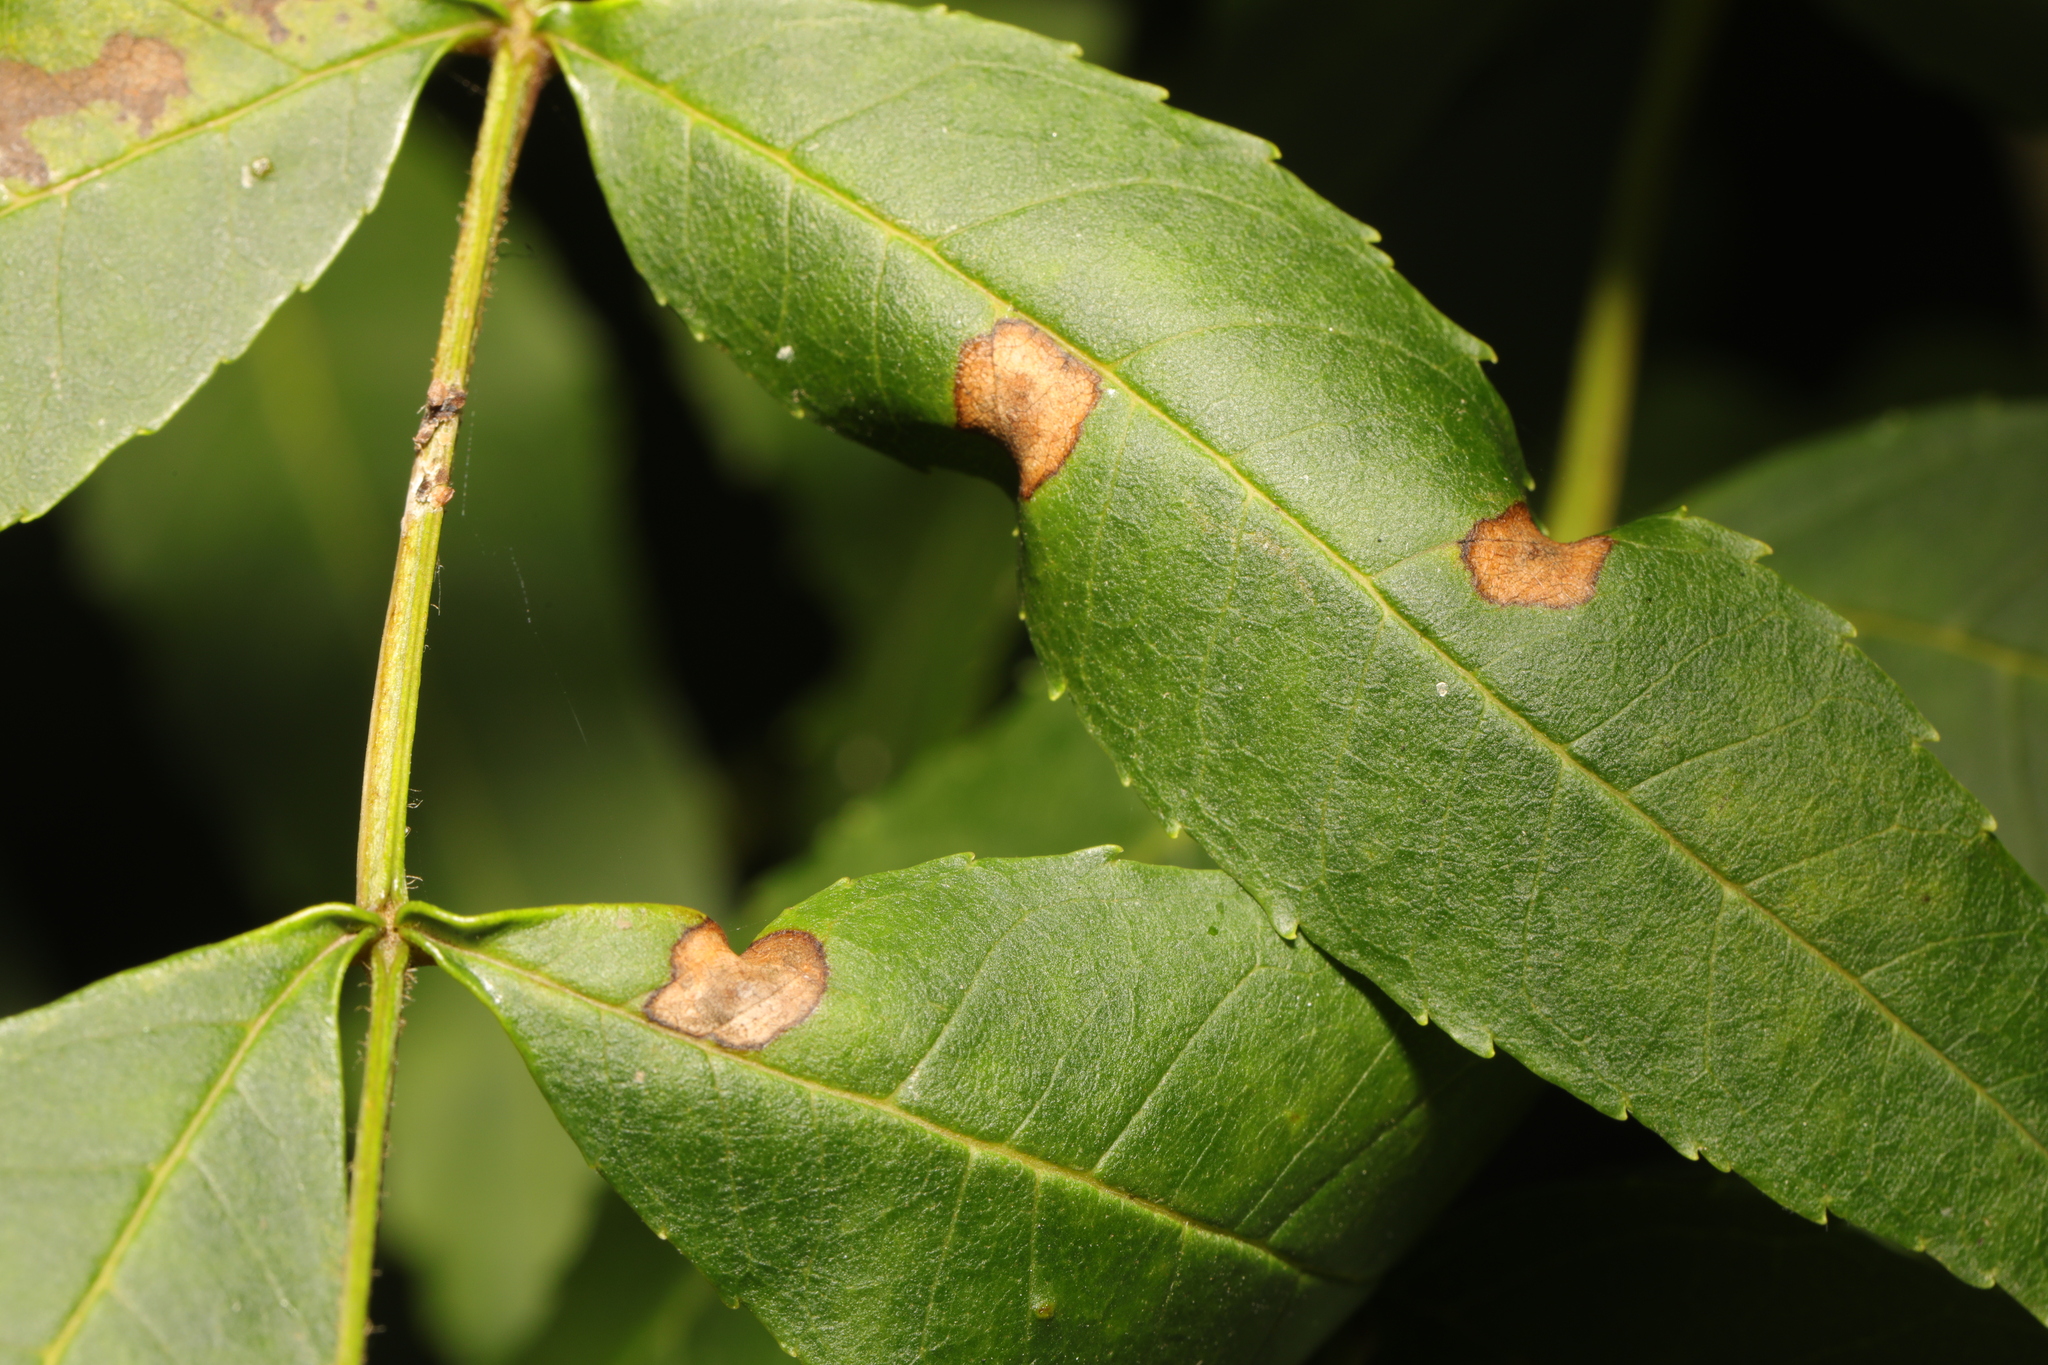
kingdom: Animalia
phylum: Arthropoda
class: Insecta
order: Diptera
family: Cecidomyiidae
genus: Dasineura
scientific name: Dasineura fraxinea
